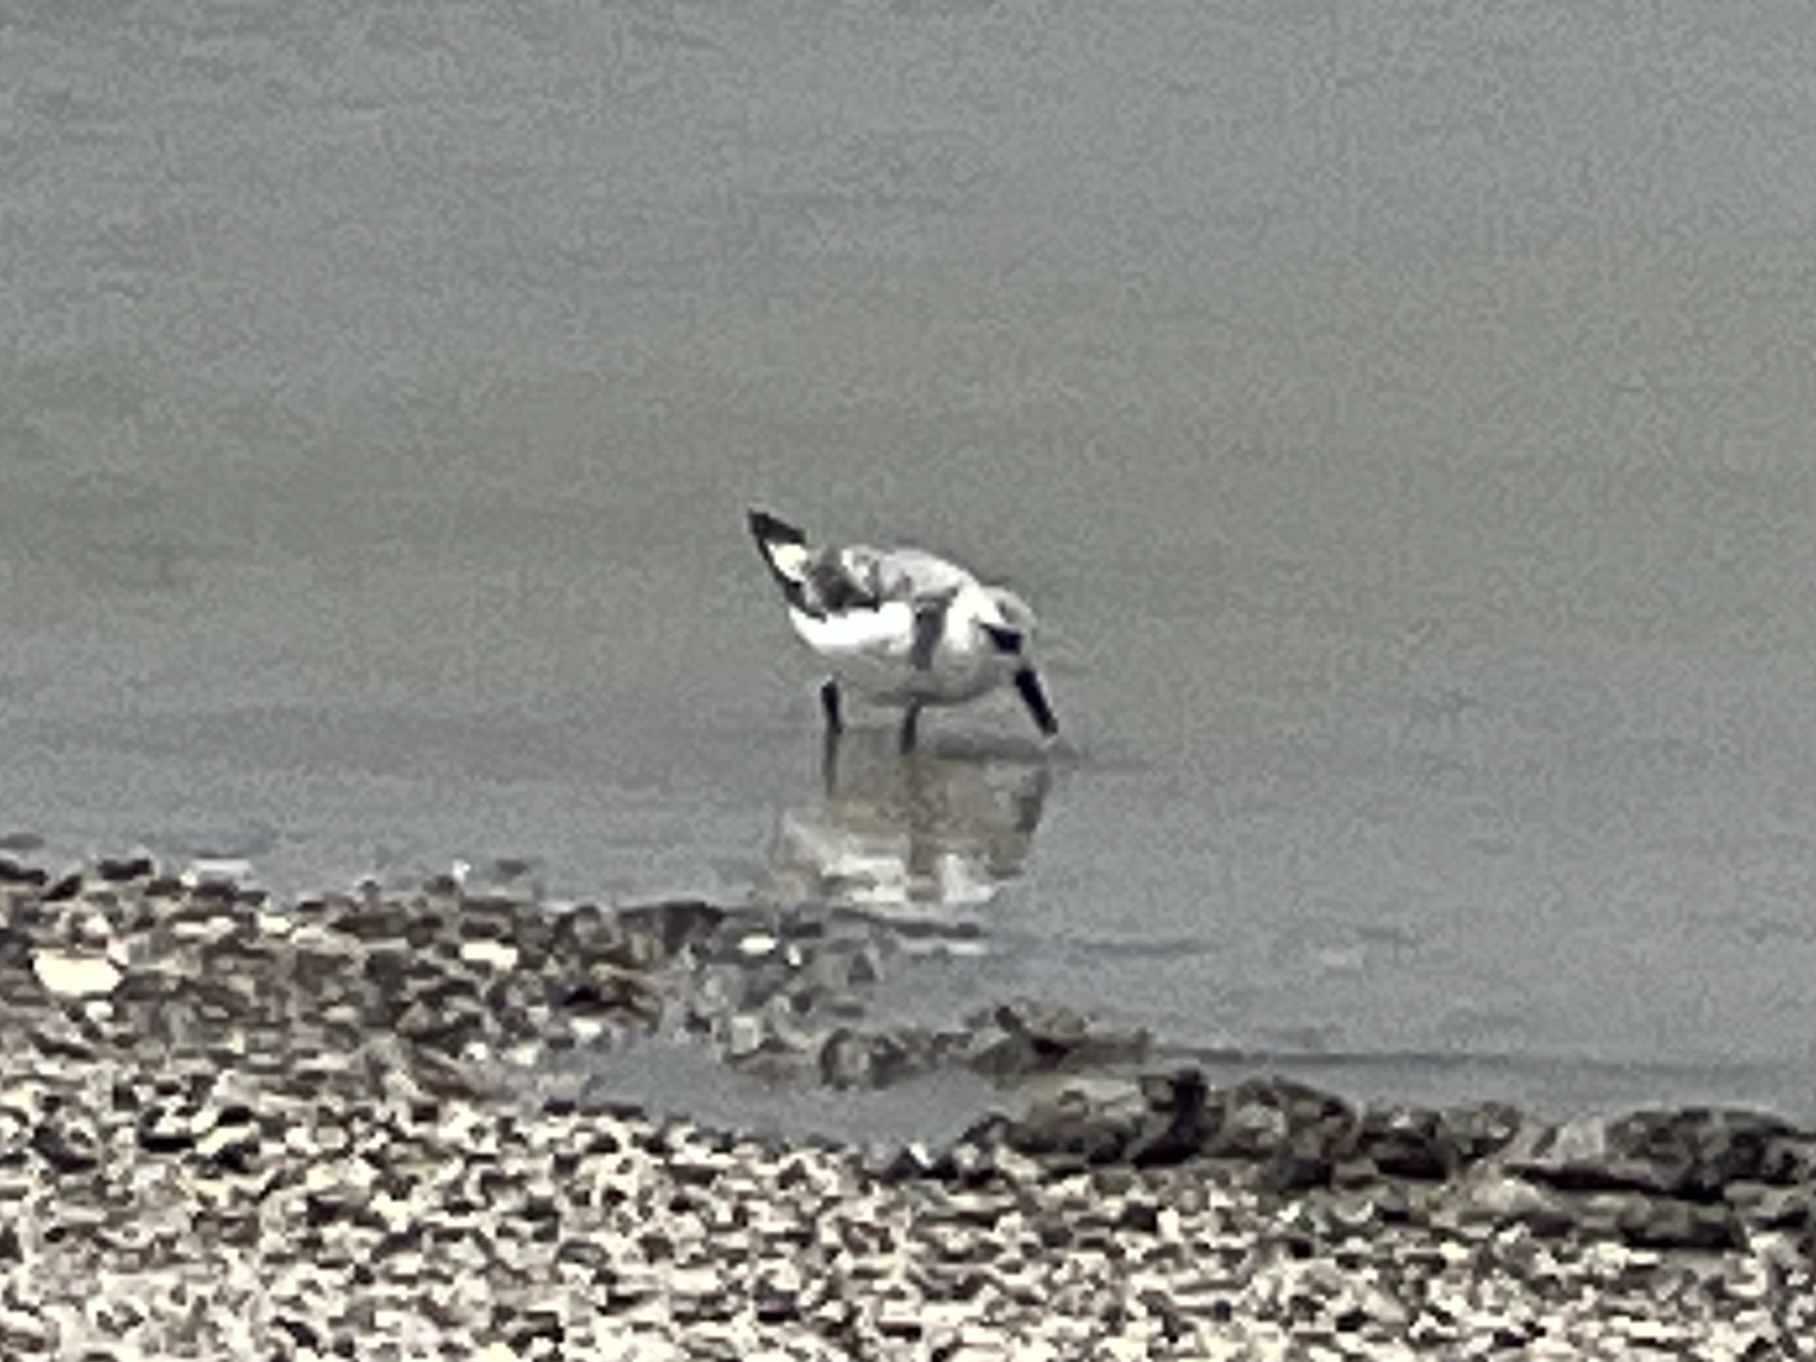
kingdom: Animalia
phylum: Chordata
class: Aves
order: Charadriiformes
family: Scolopacidae
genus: Calidris
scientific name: Calidris alba
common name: Sanderling
